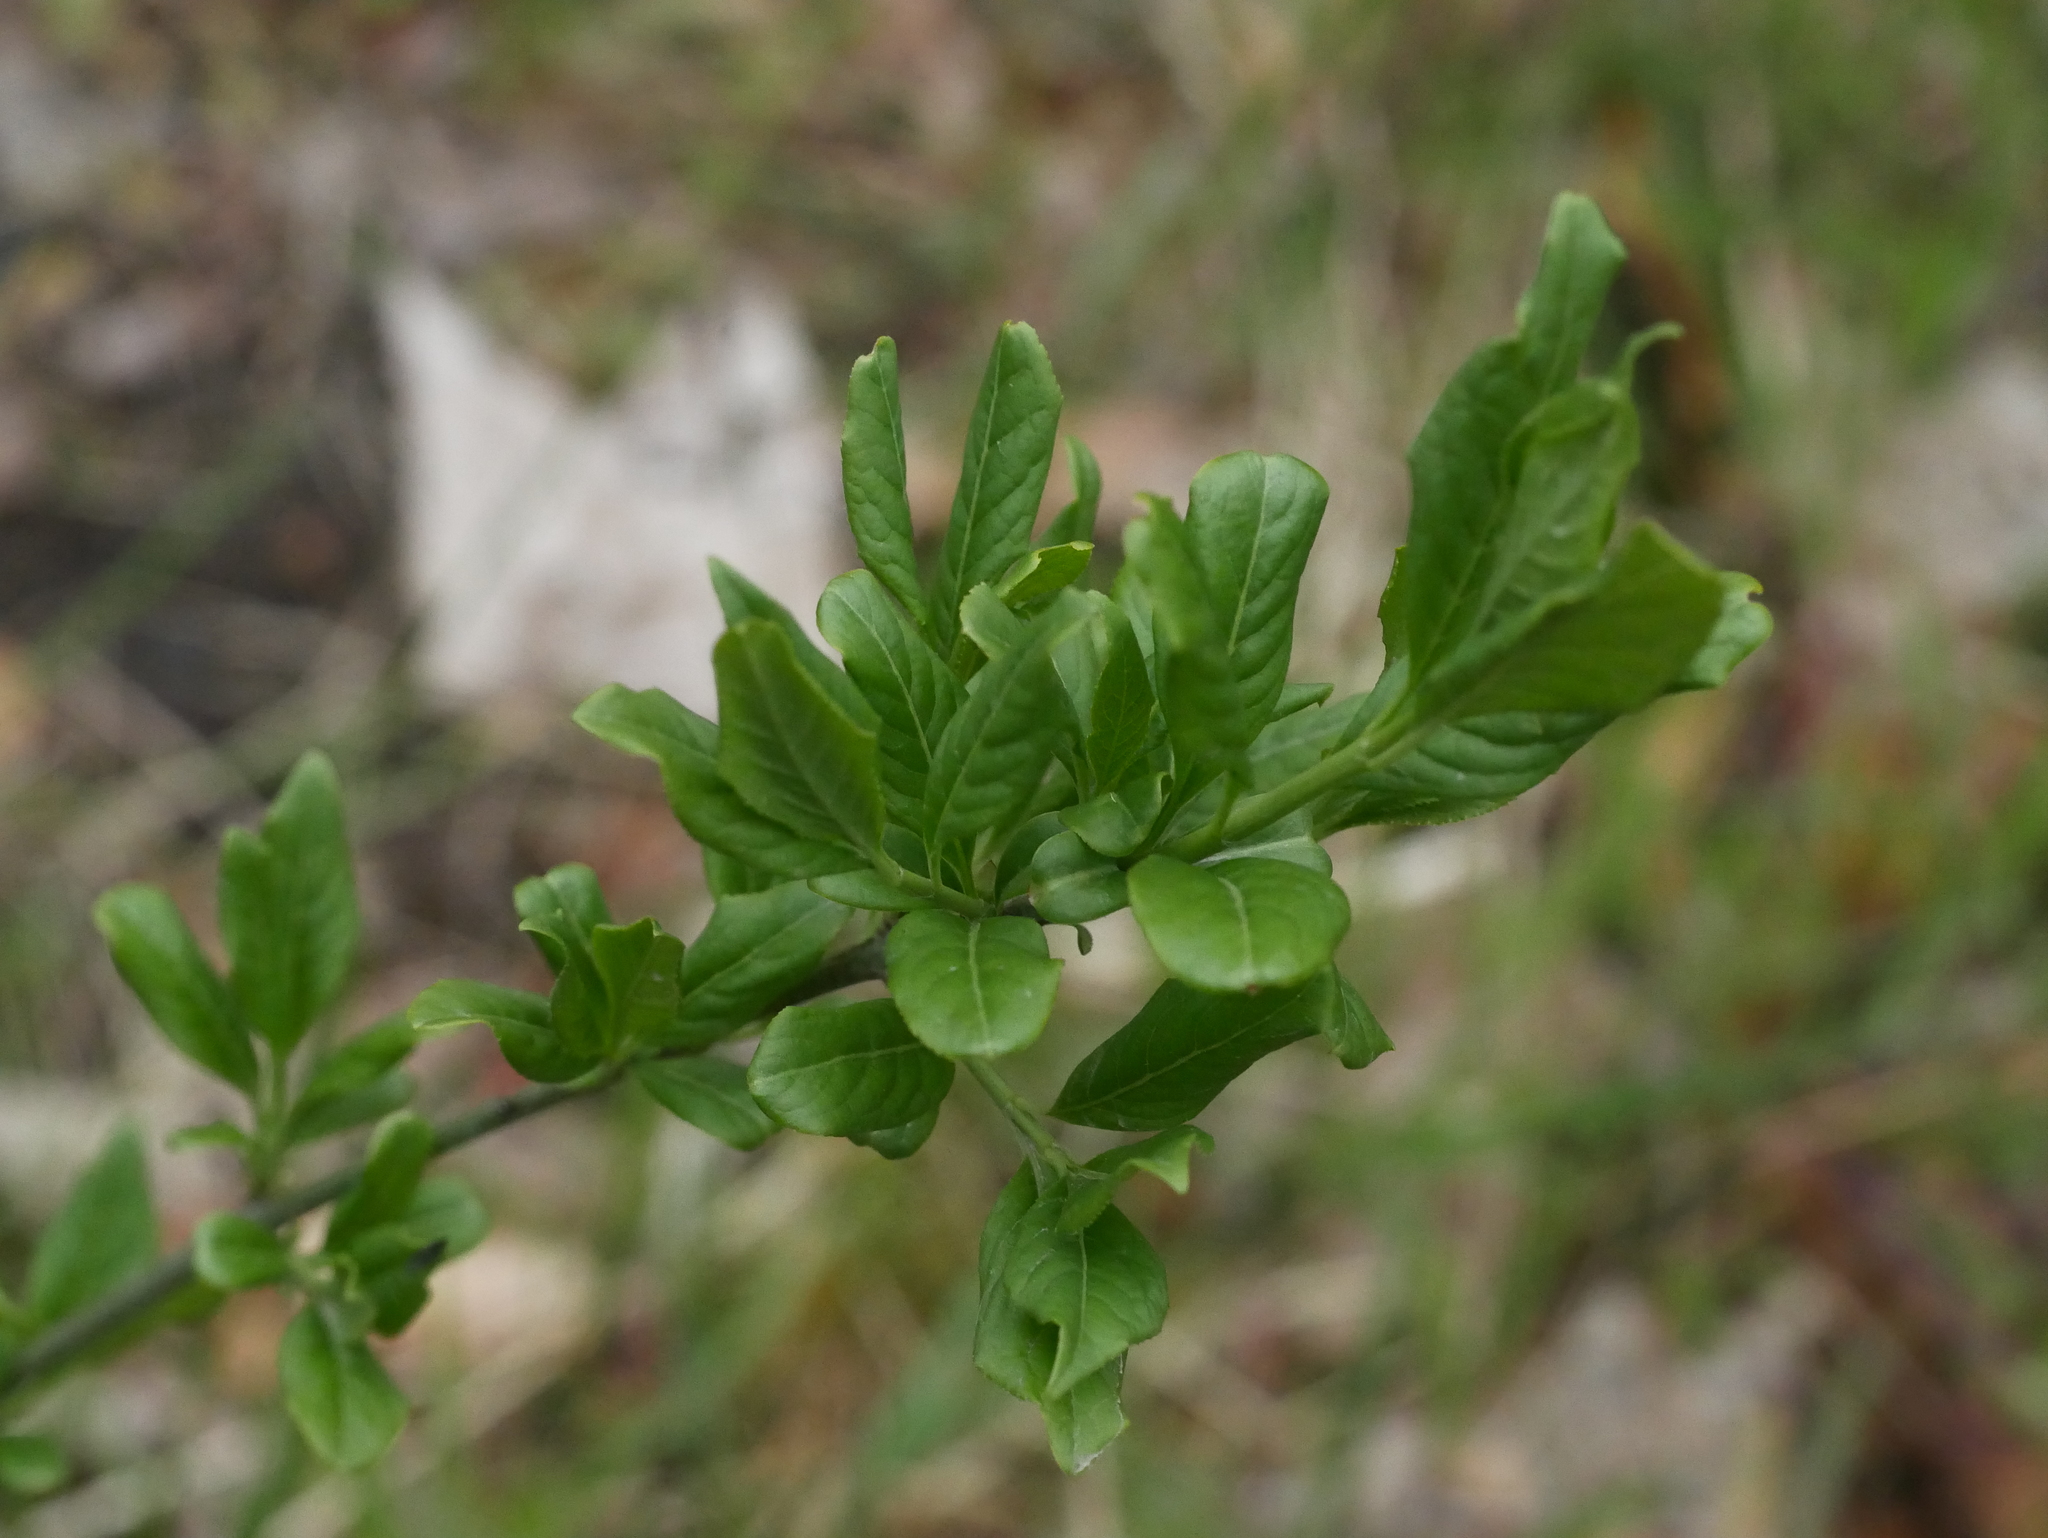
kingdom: Plantae
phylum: Tracheophyta
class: Magnoliopsida
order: Celastrales
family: Celastraceae
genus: Euonymus
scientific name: Euonymus europaeus
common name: Spindle
